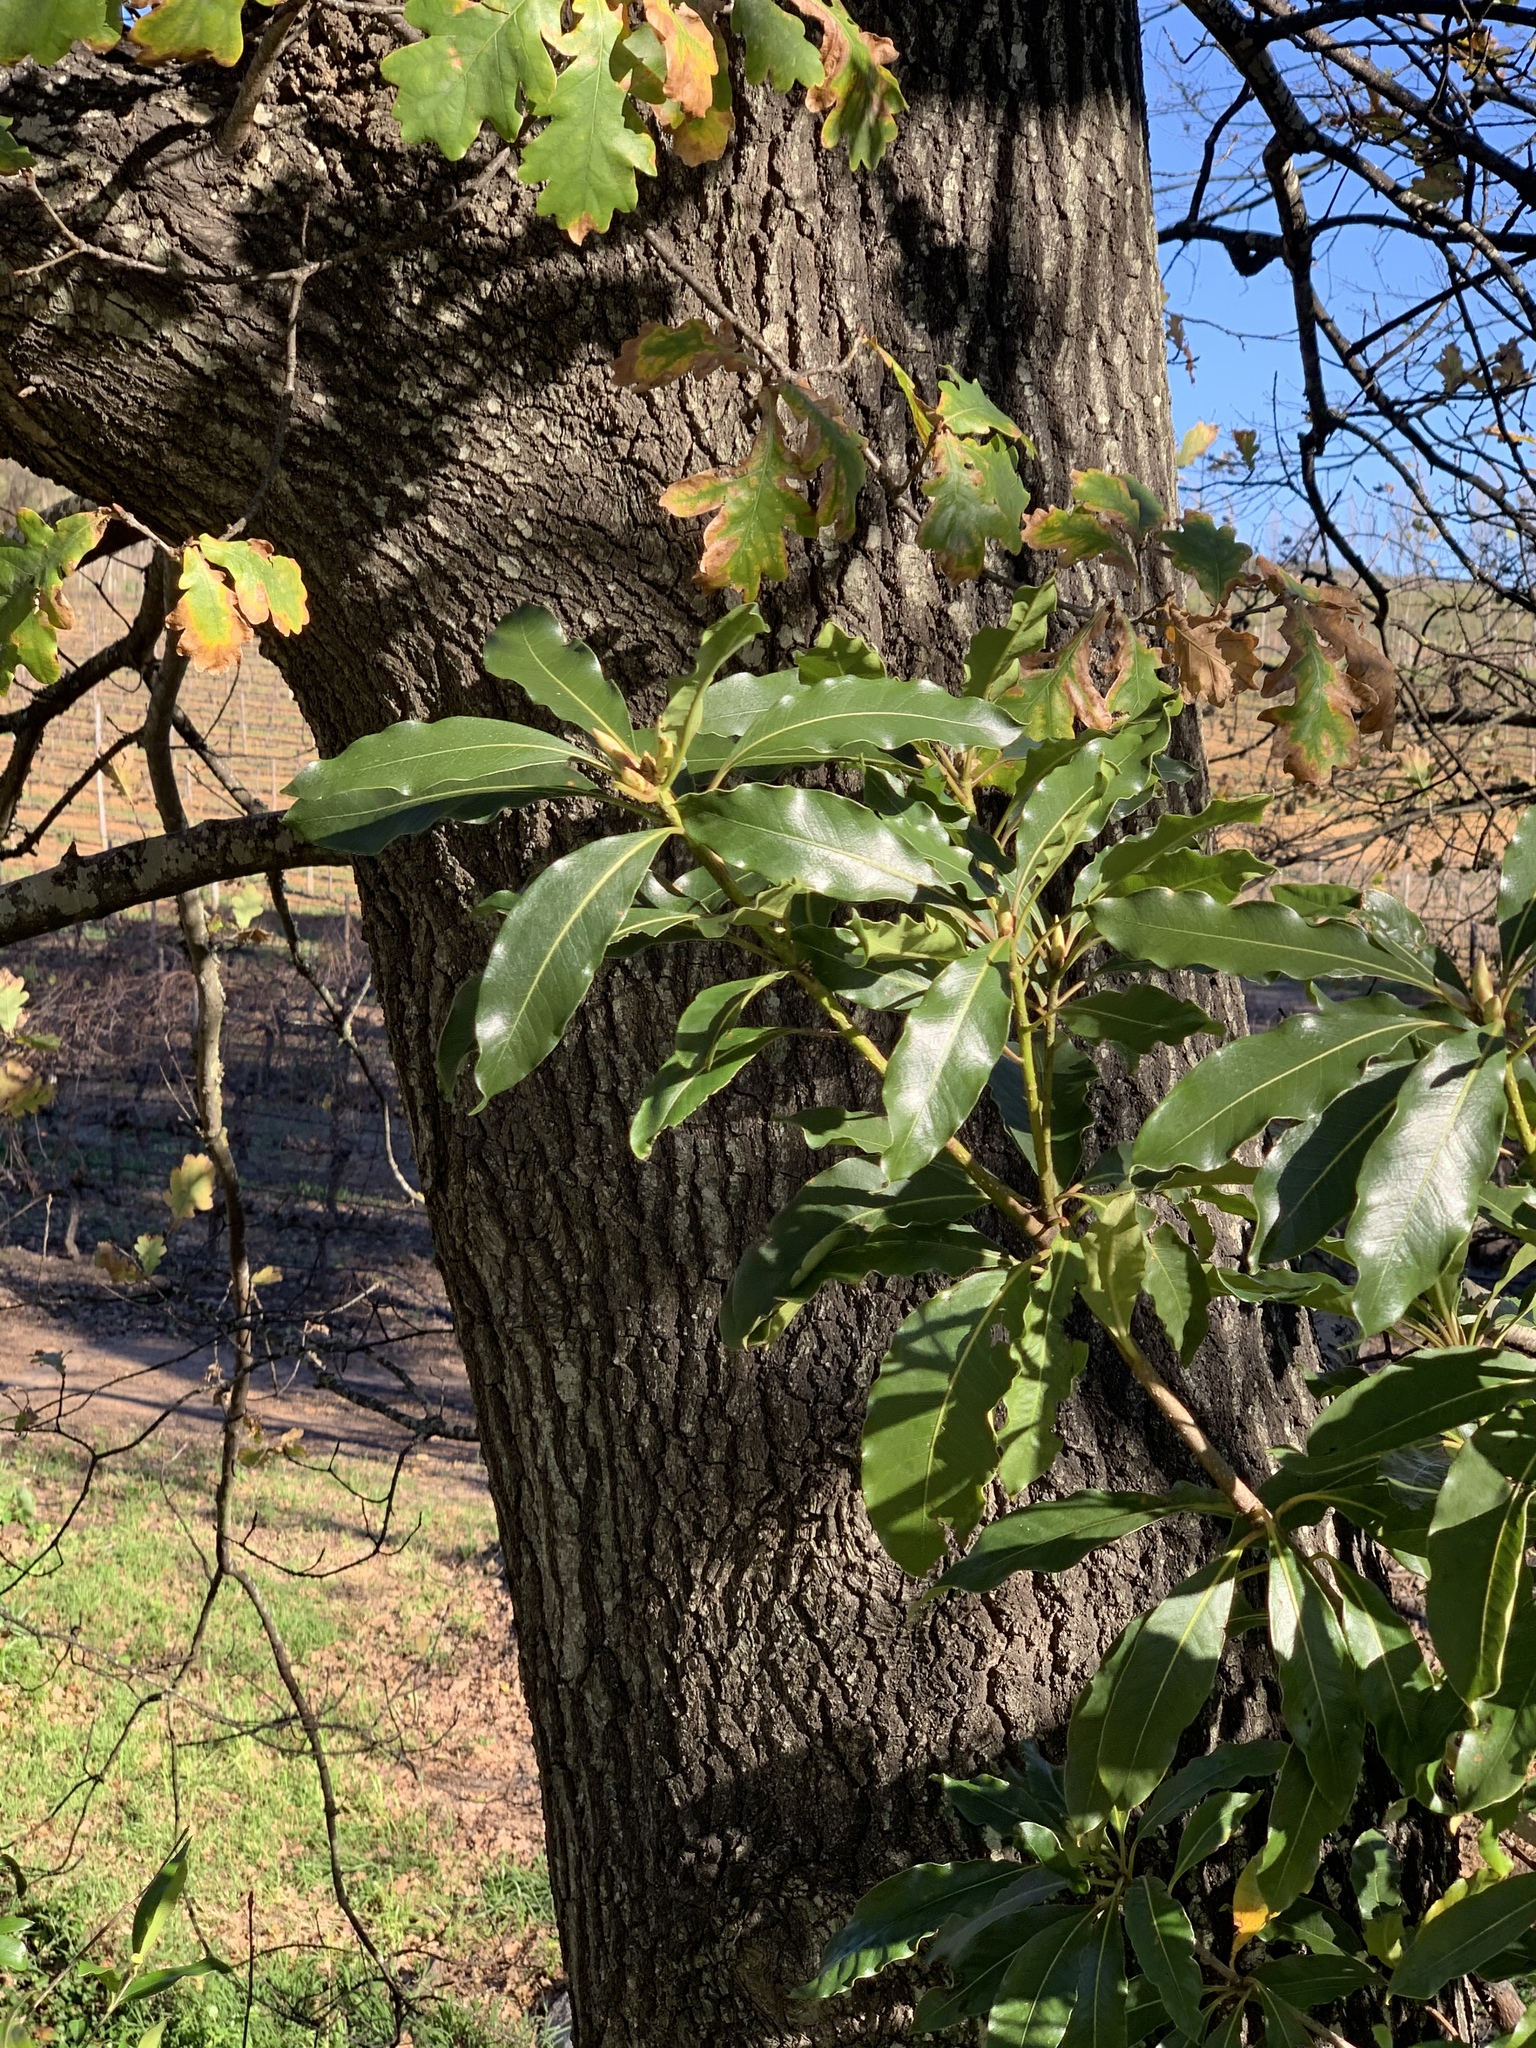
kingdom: Plantae
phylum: Tracheophyta
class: Magnoliopsida
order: Apiales
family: Pittosporaceae
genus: Pittosporum
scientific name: Pittosporum undulatum
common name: Australian cheesewood
